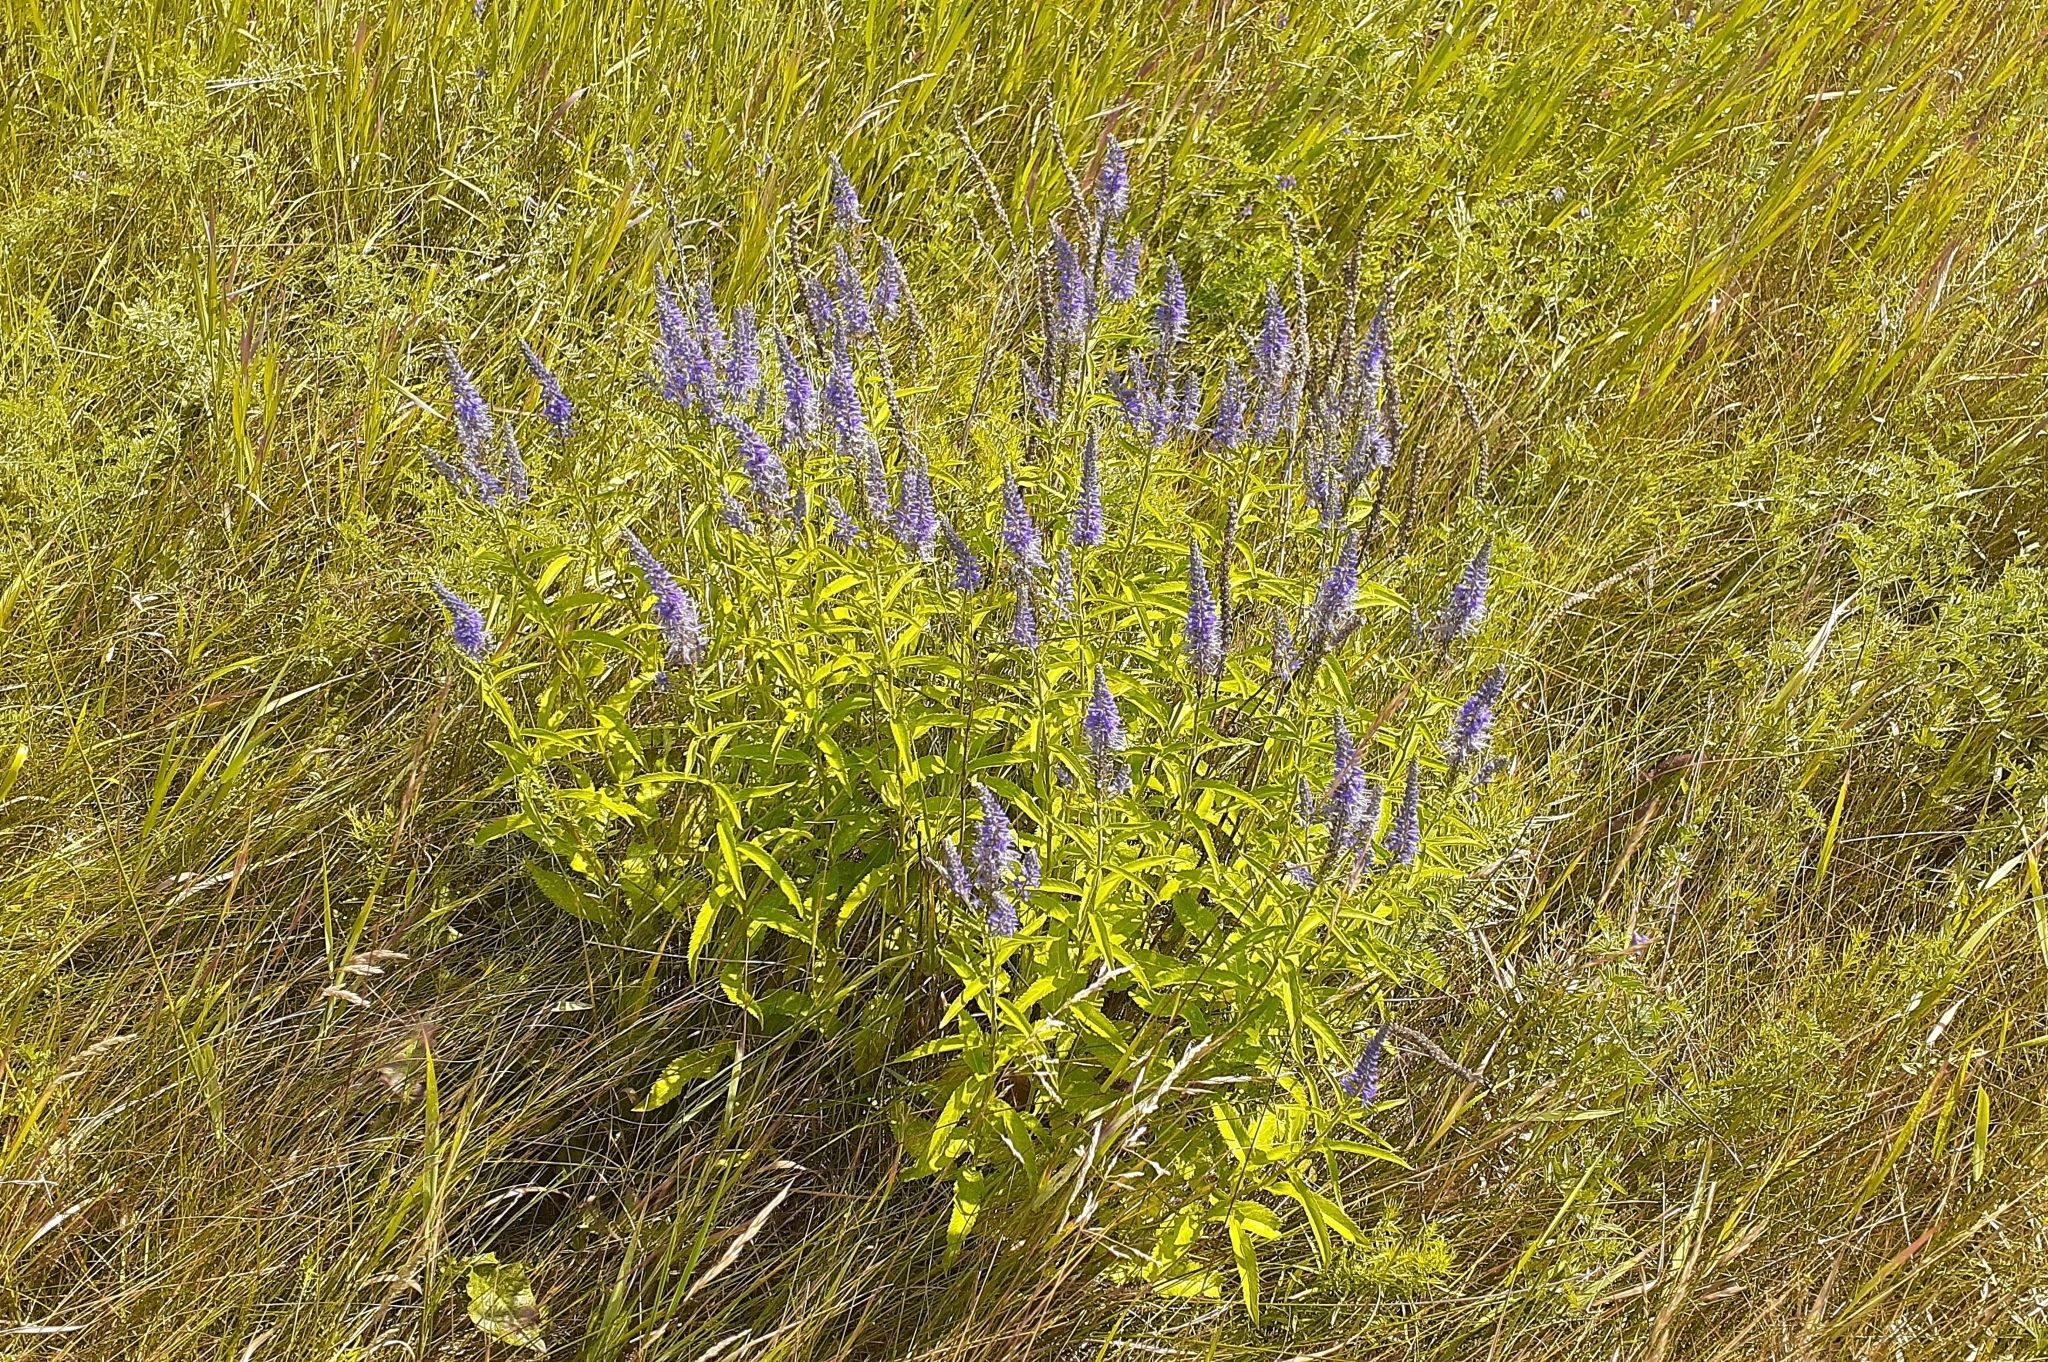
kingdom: Plantae
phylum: Tracheophyta
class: Magnoliopsida
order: Lamiales
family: Plantaginaceae
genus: Veronica
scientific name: Veronica longifolia
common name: Garden speedwell
